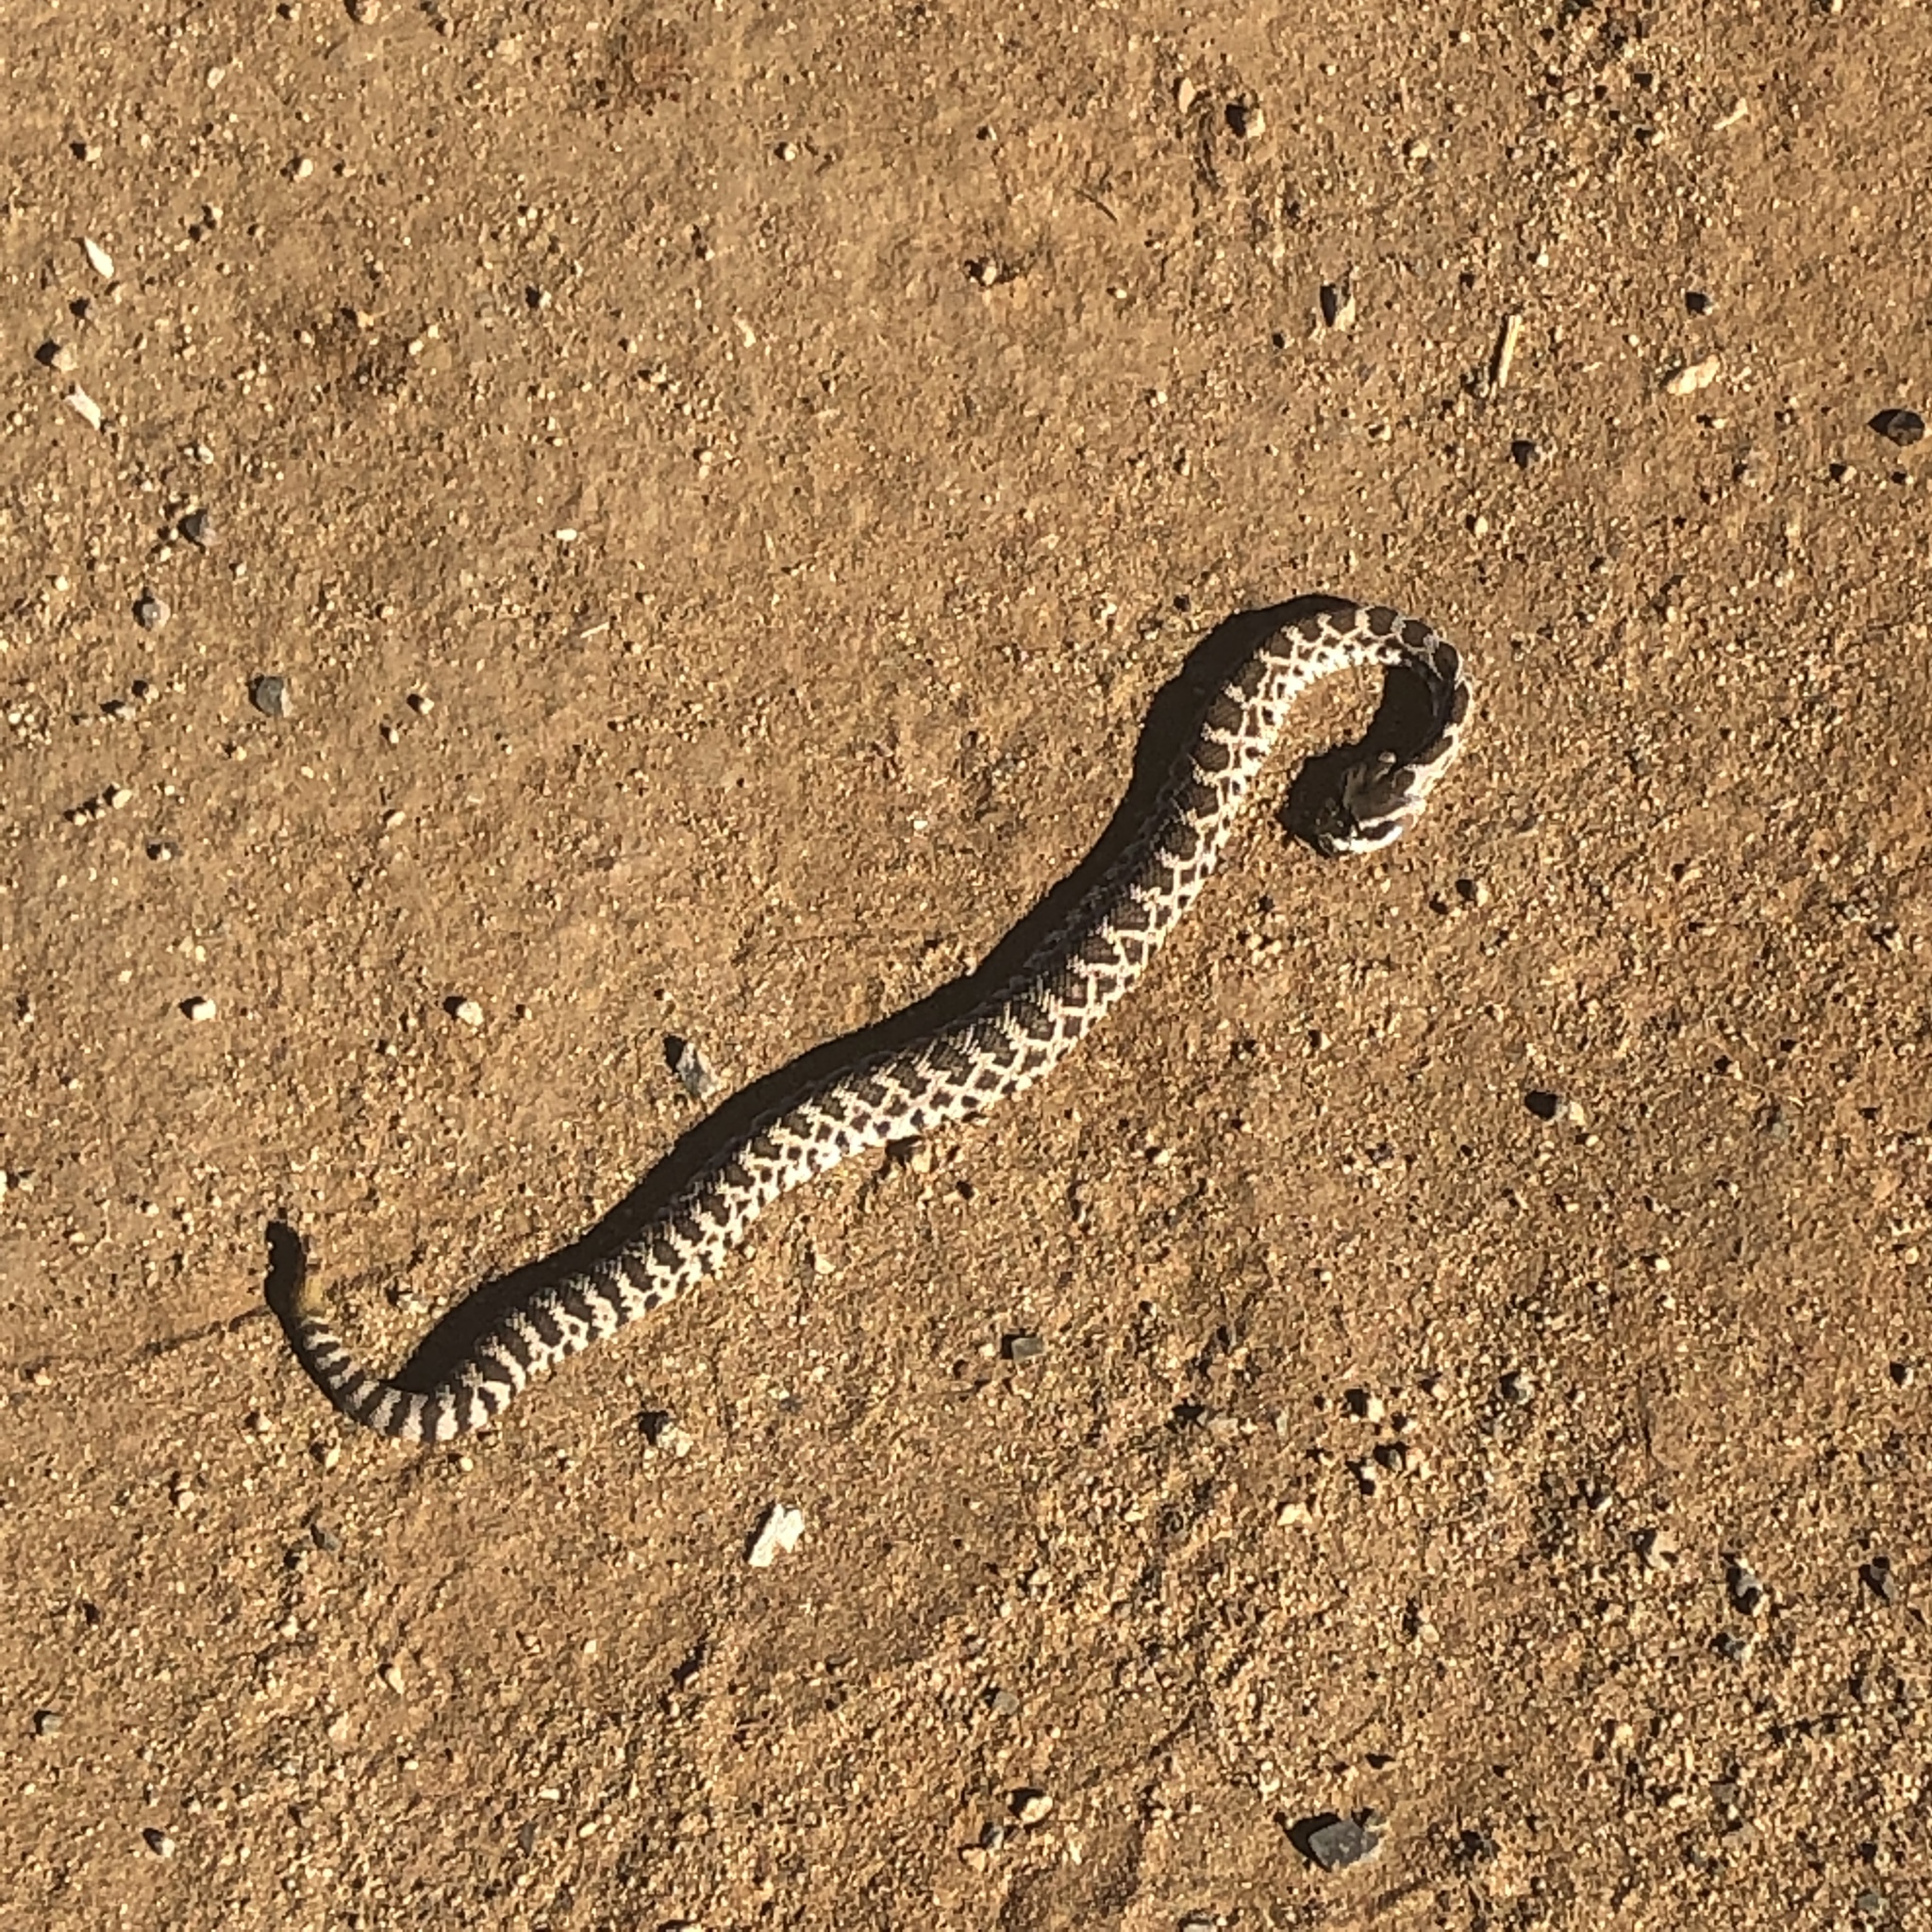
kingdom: Animalia
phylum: Chordata
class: Squamata
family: Viperidae
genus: Crotalus
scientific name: Crotalus oreganus
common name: Abyssus
